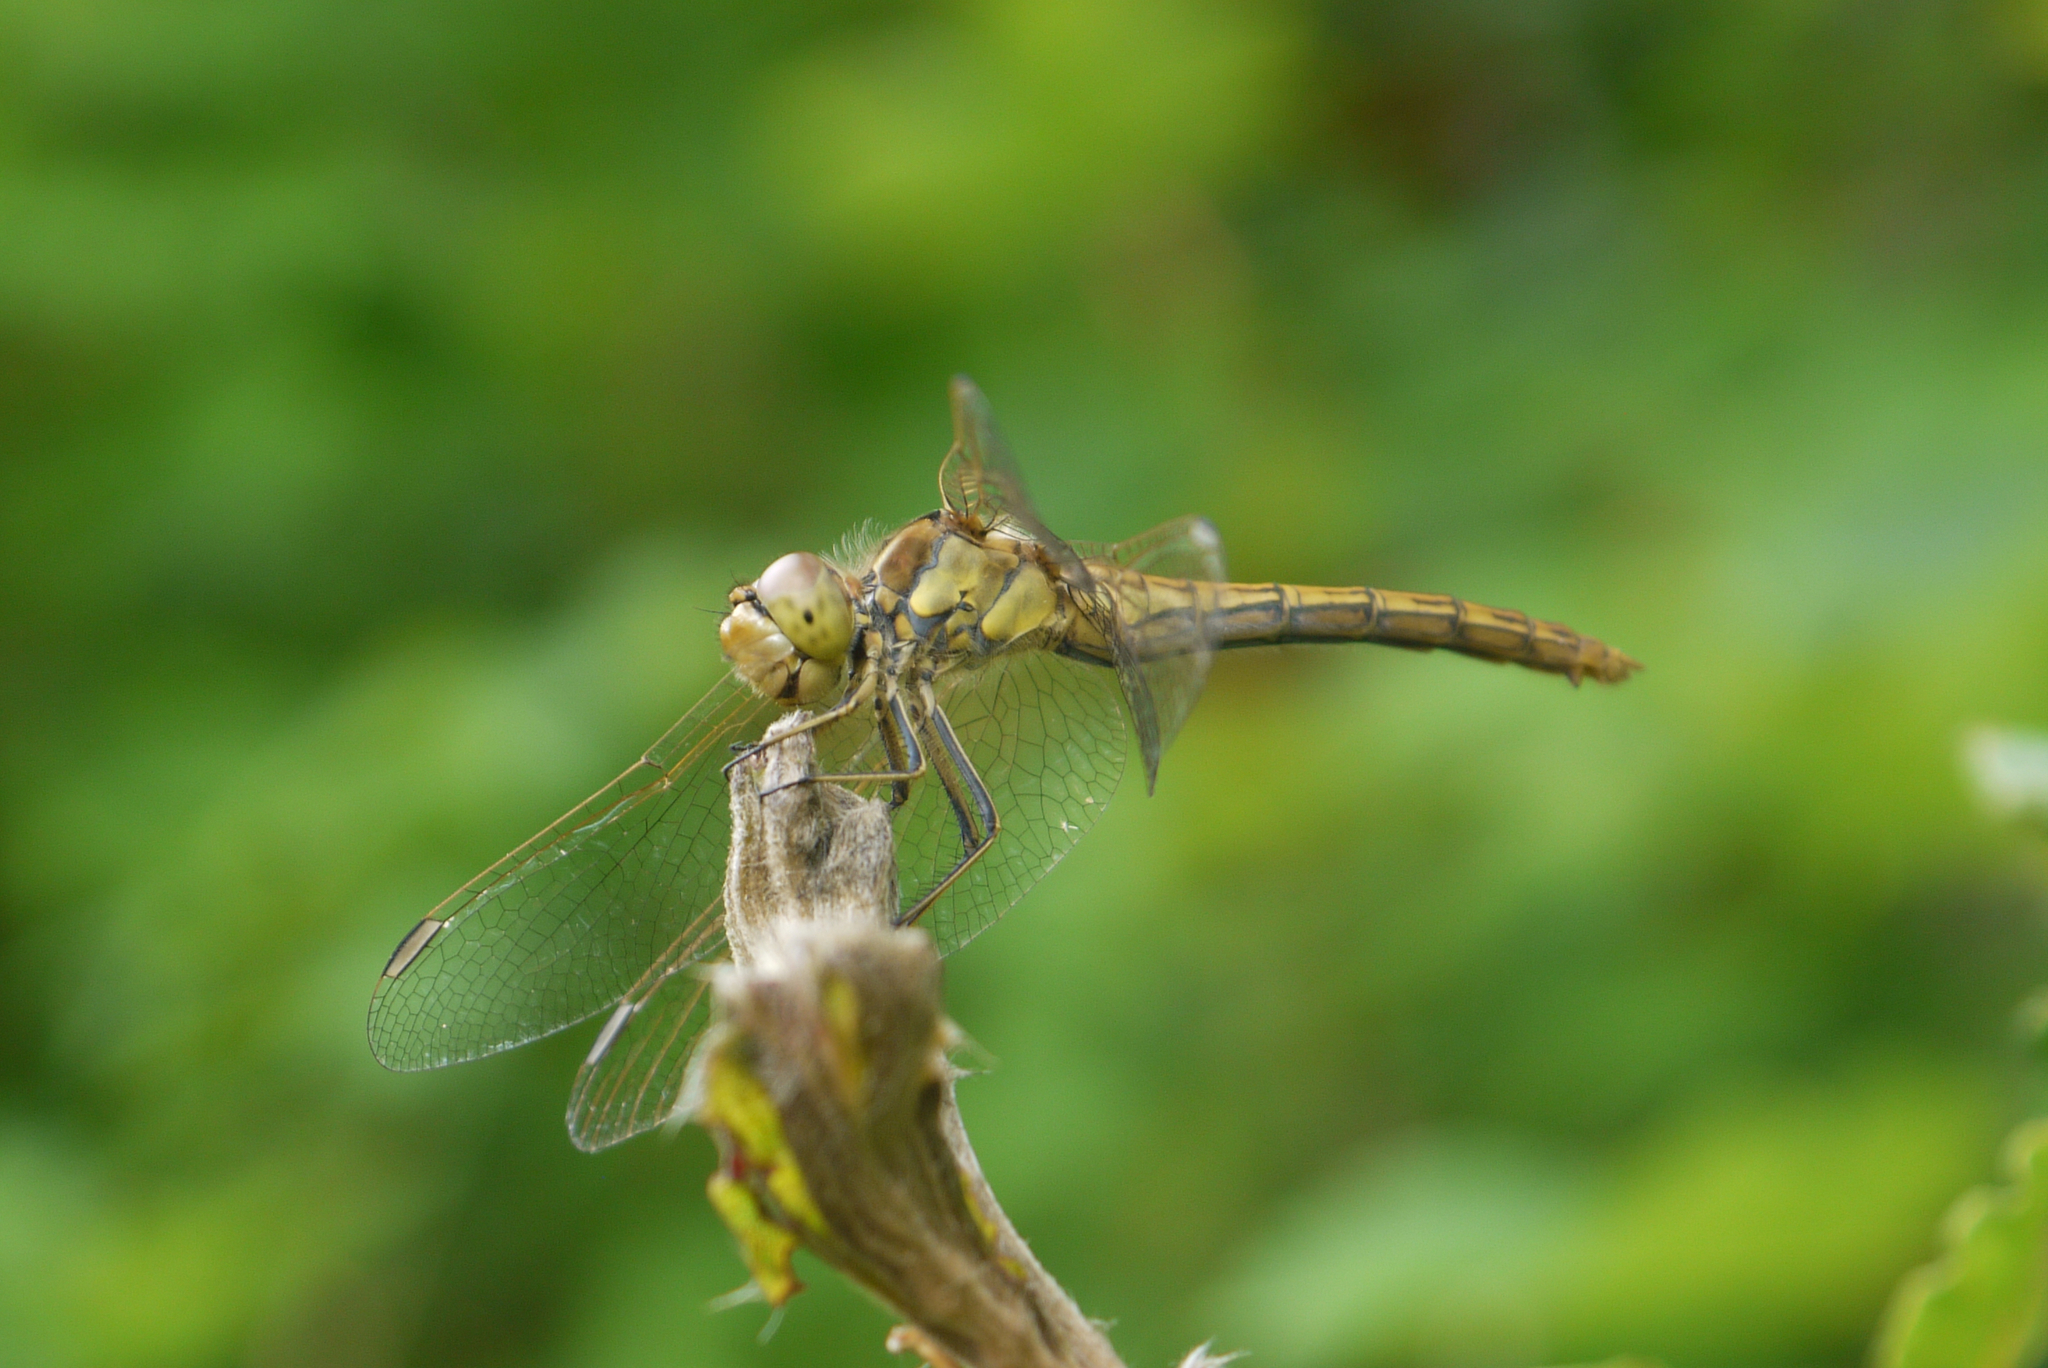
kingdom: Animalia
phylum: Arthropoda
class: Insecta
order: Odonata
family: Libellulidae
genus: Sympetrum
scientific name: Sympetrum vulgatum
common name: Vagrant darter
